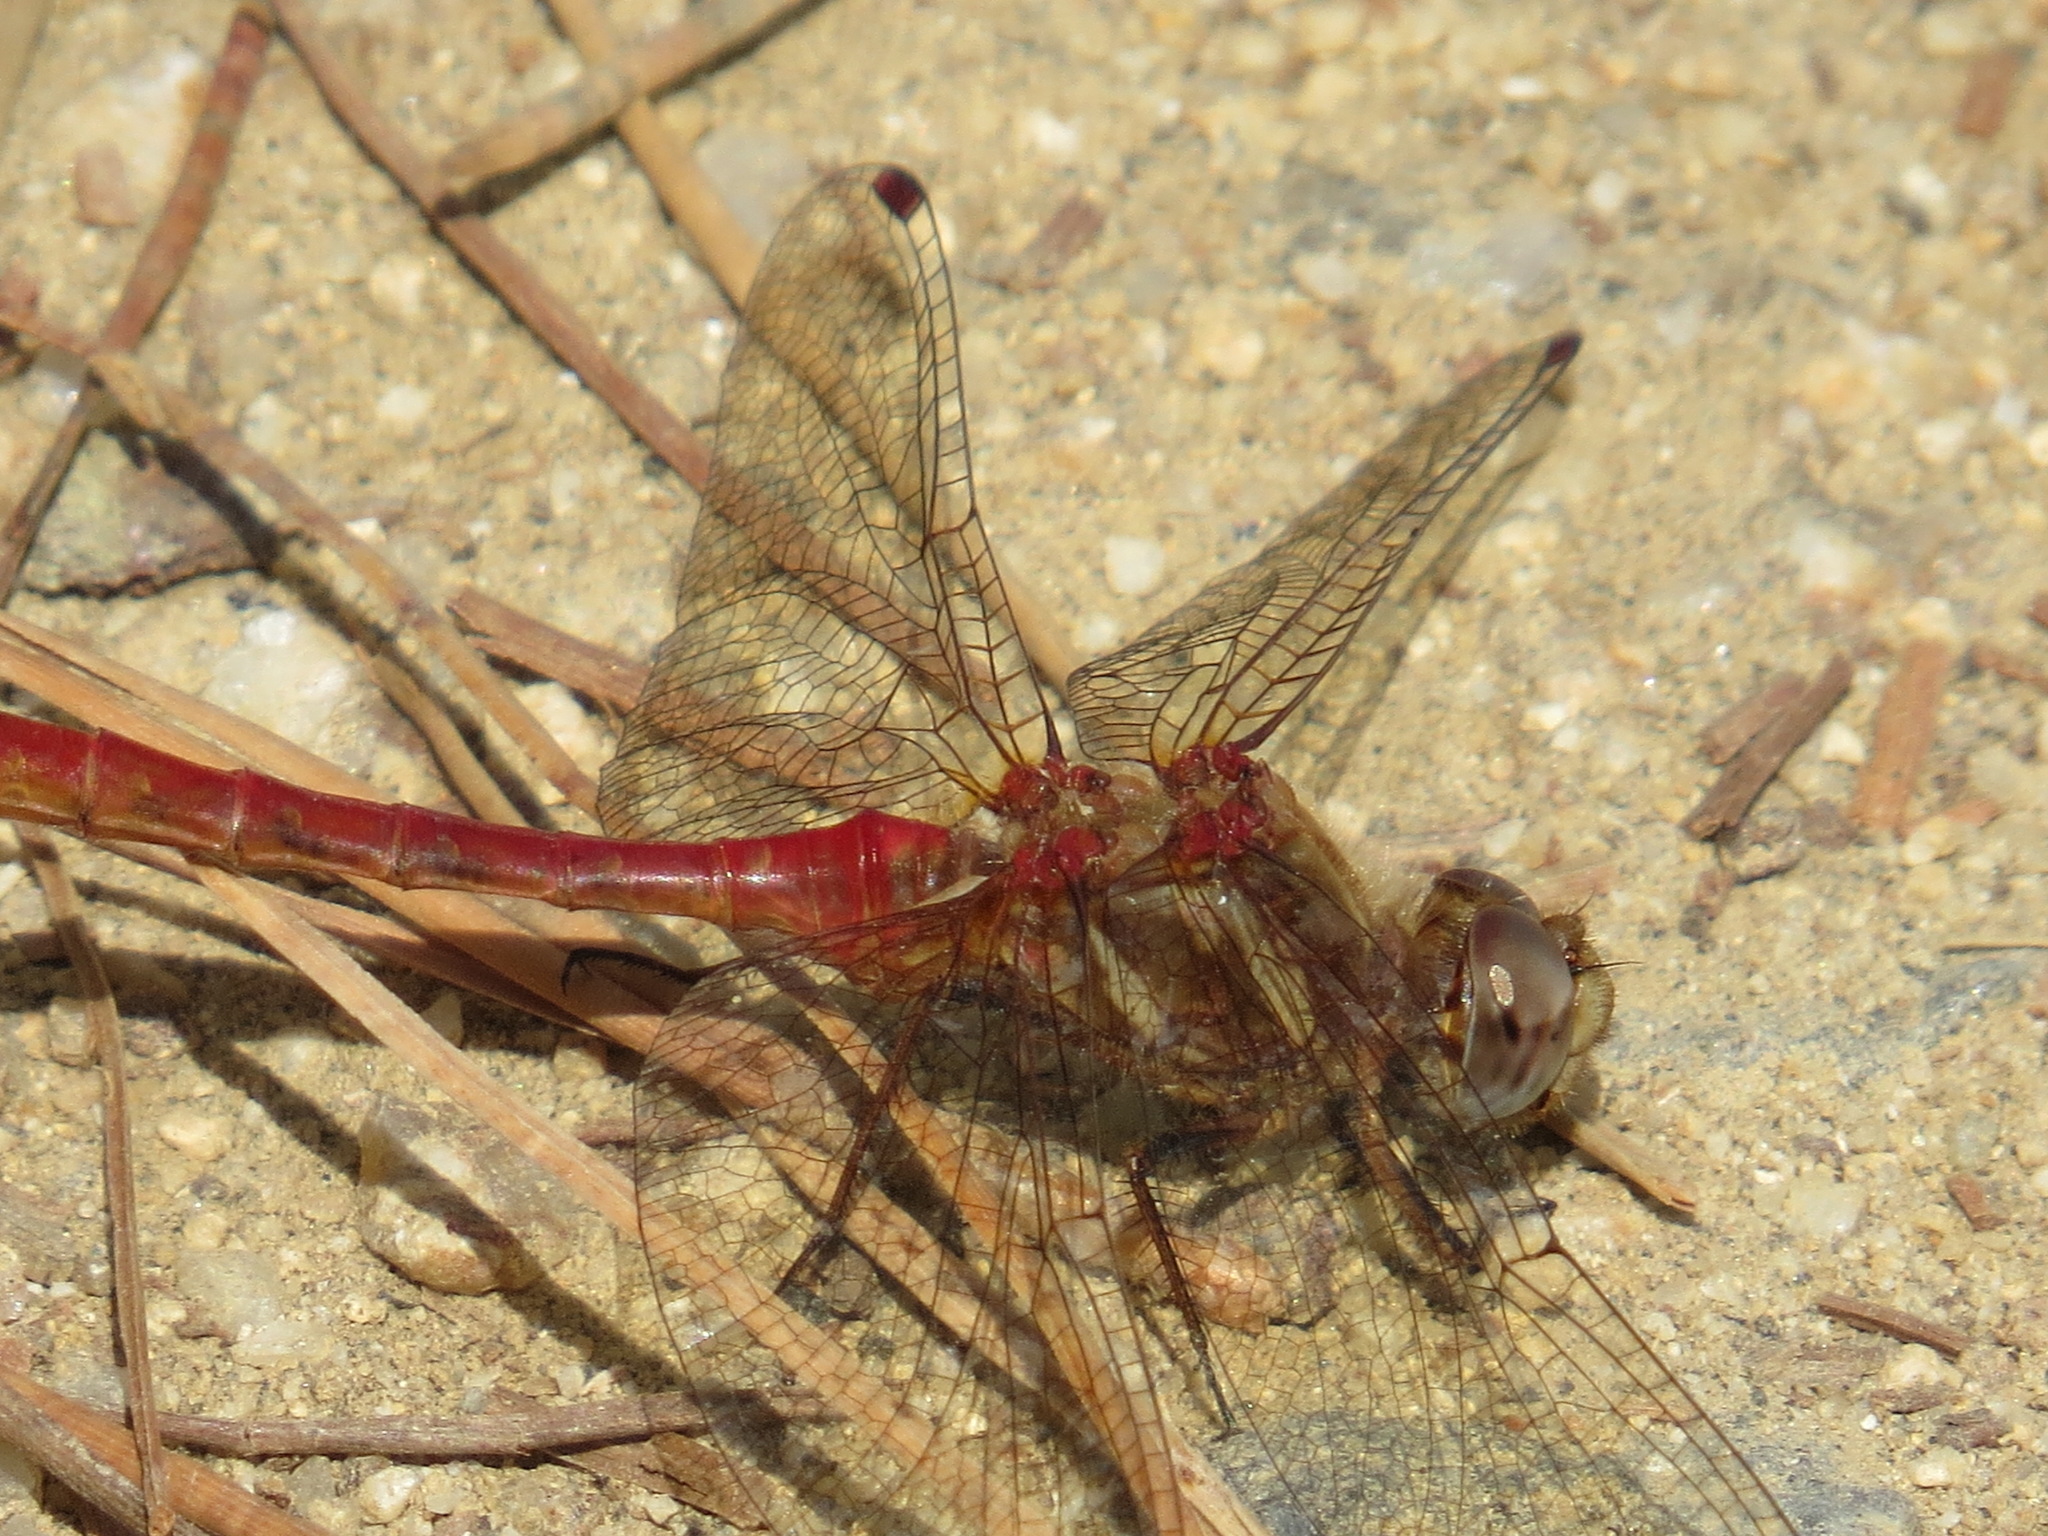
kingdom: Animalia
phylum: Arthropoda
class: Insecta
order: Odonata
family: Libellulidae
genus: Sympetrum
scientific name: Sympetrum pallipes
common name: Striped meadowhawk
